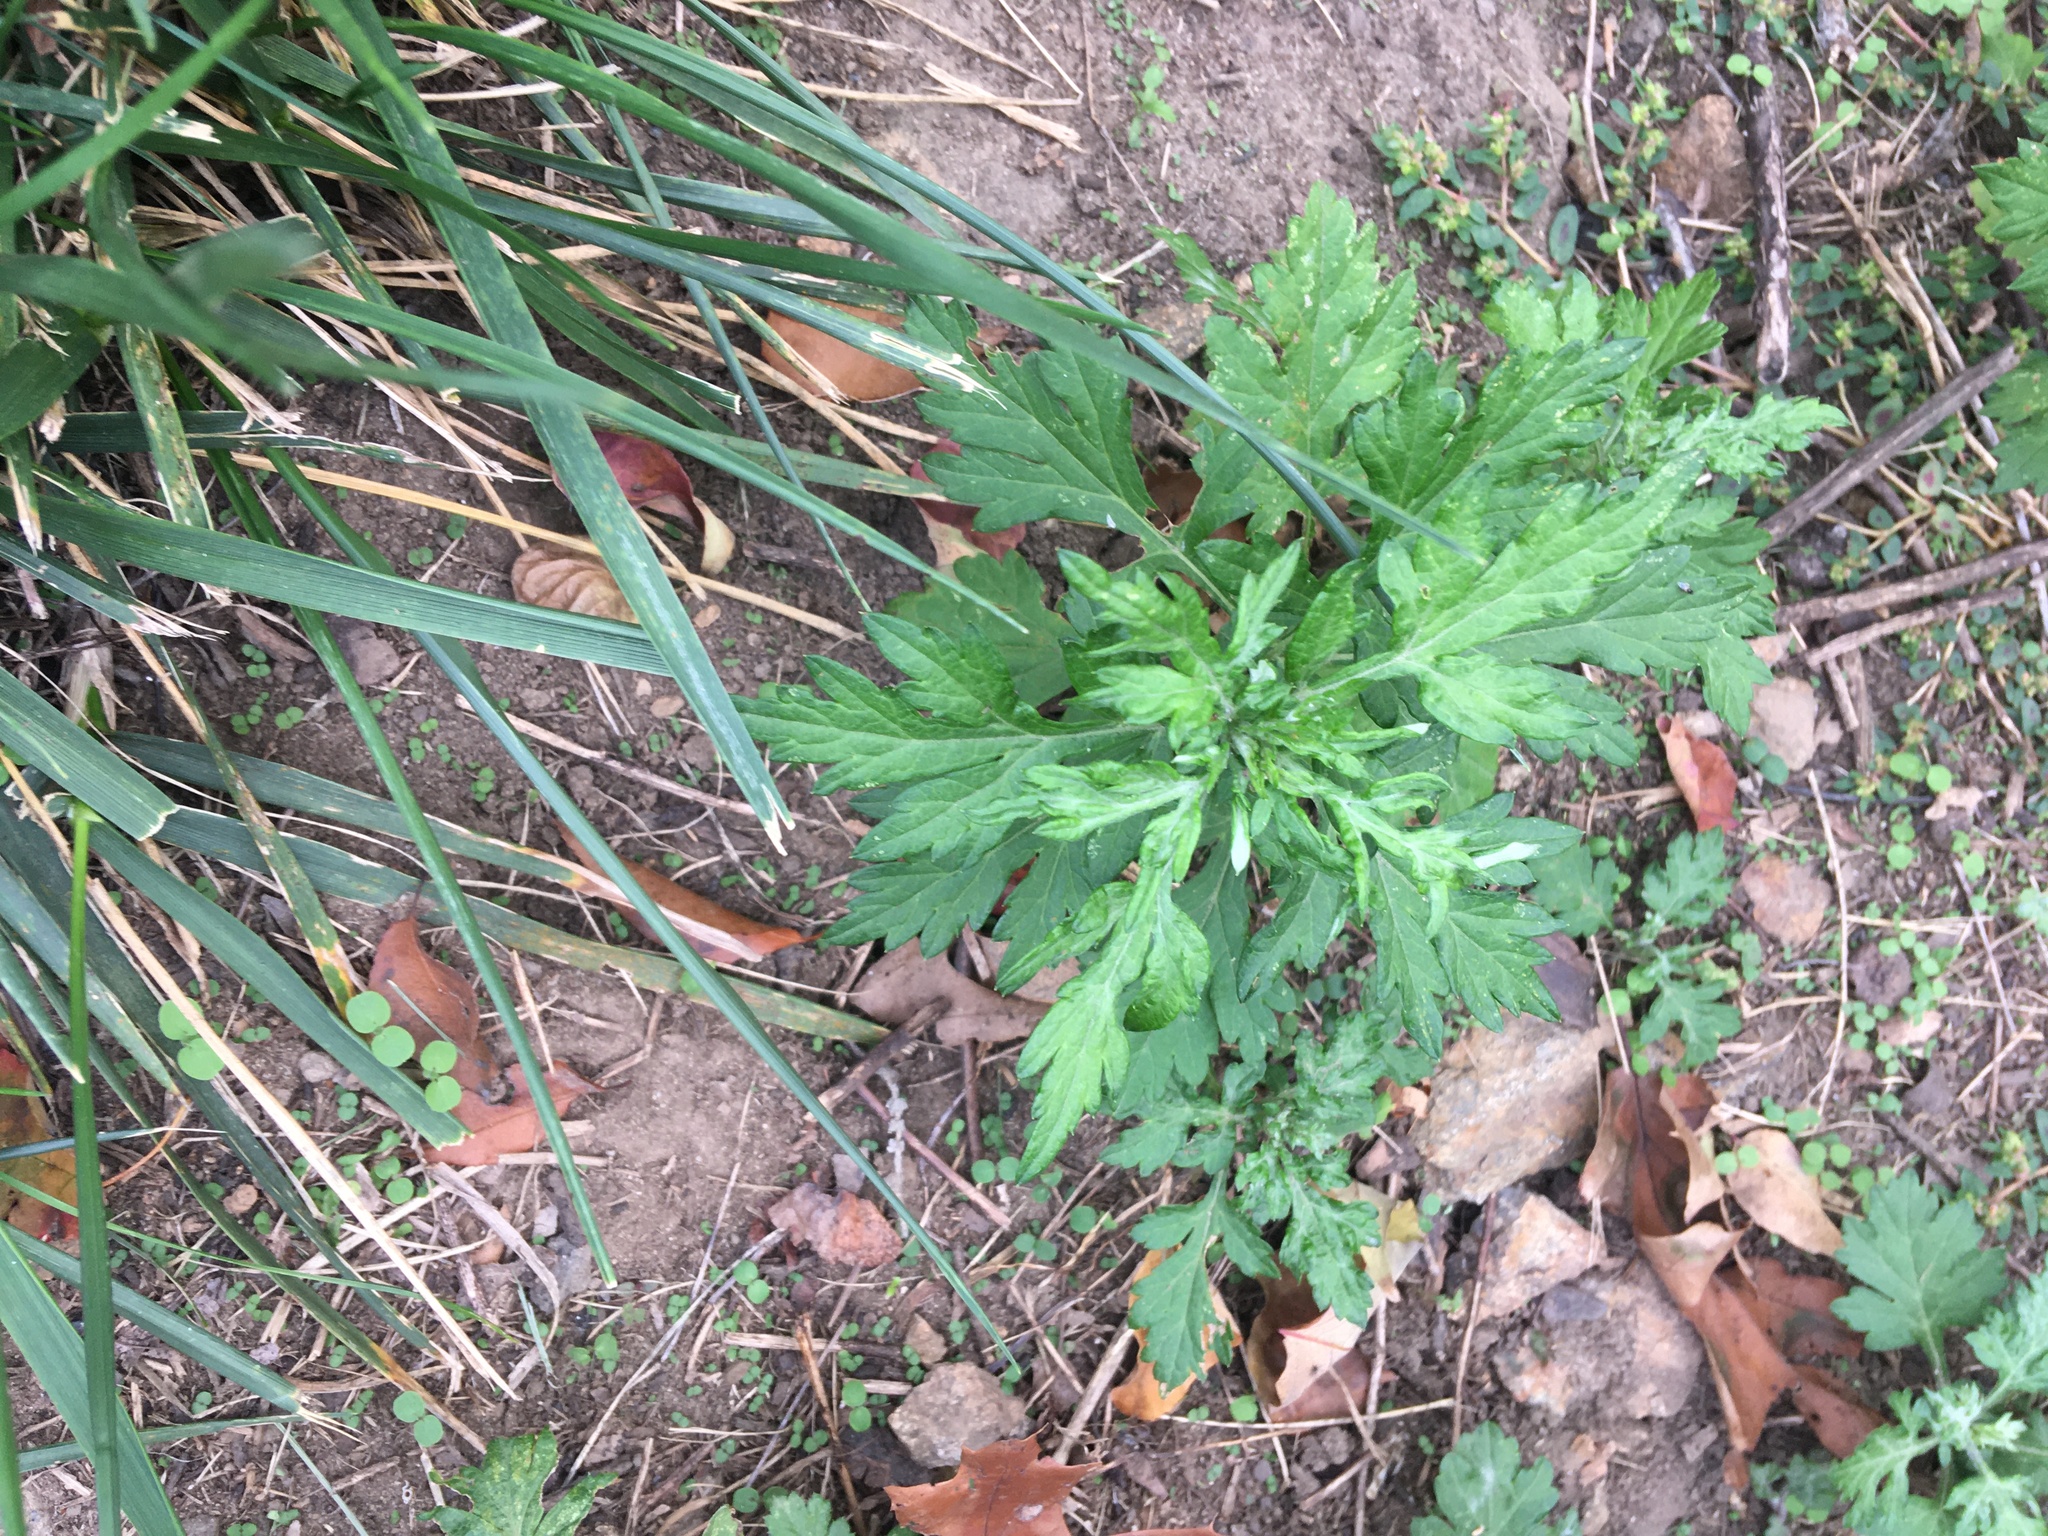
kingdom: Plantae
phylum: Tracheophyta
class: Magnoliopsida
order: Asterales
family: Asteraceae
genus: Artemisia
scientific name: Artemisia vulgaris
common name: Mugwort
